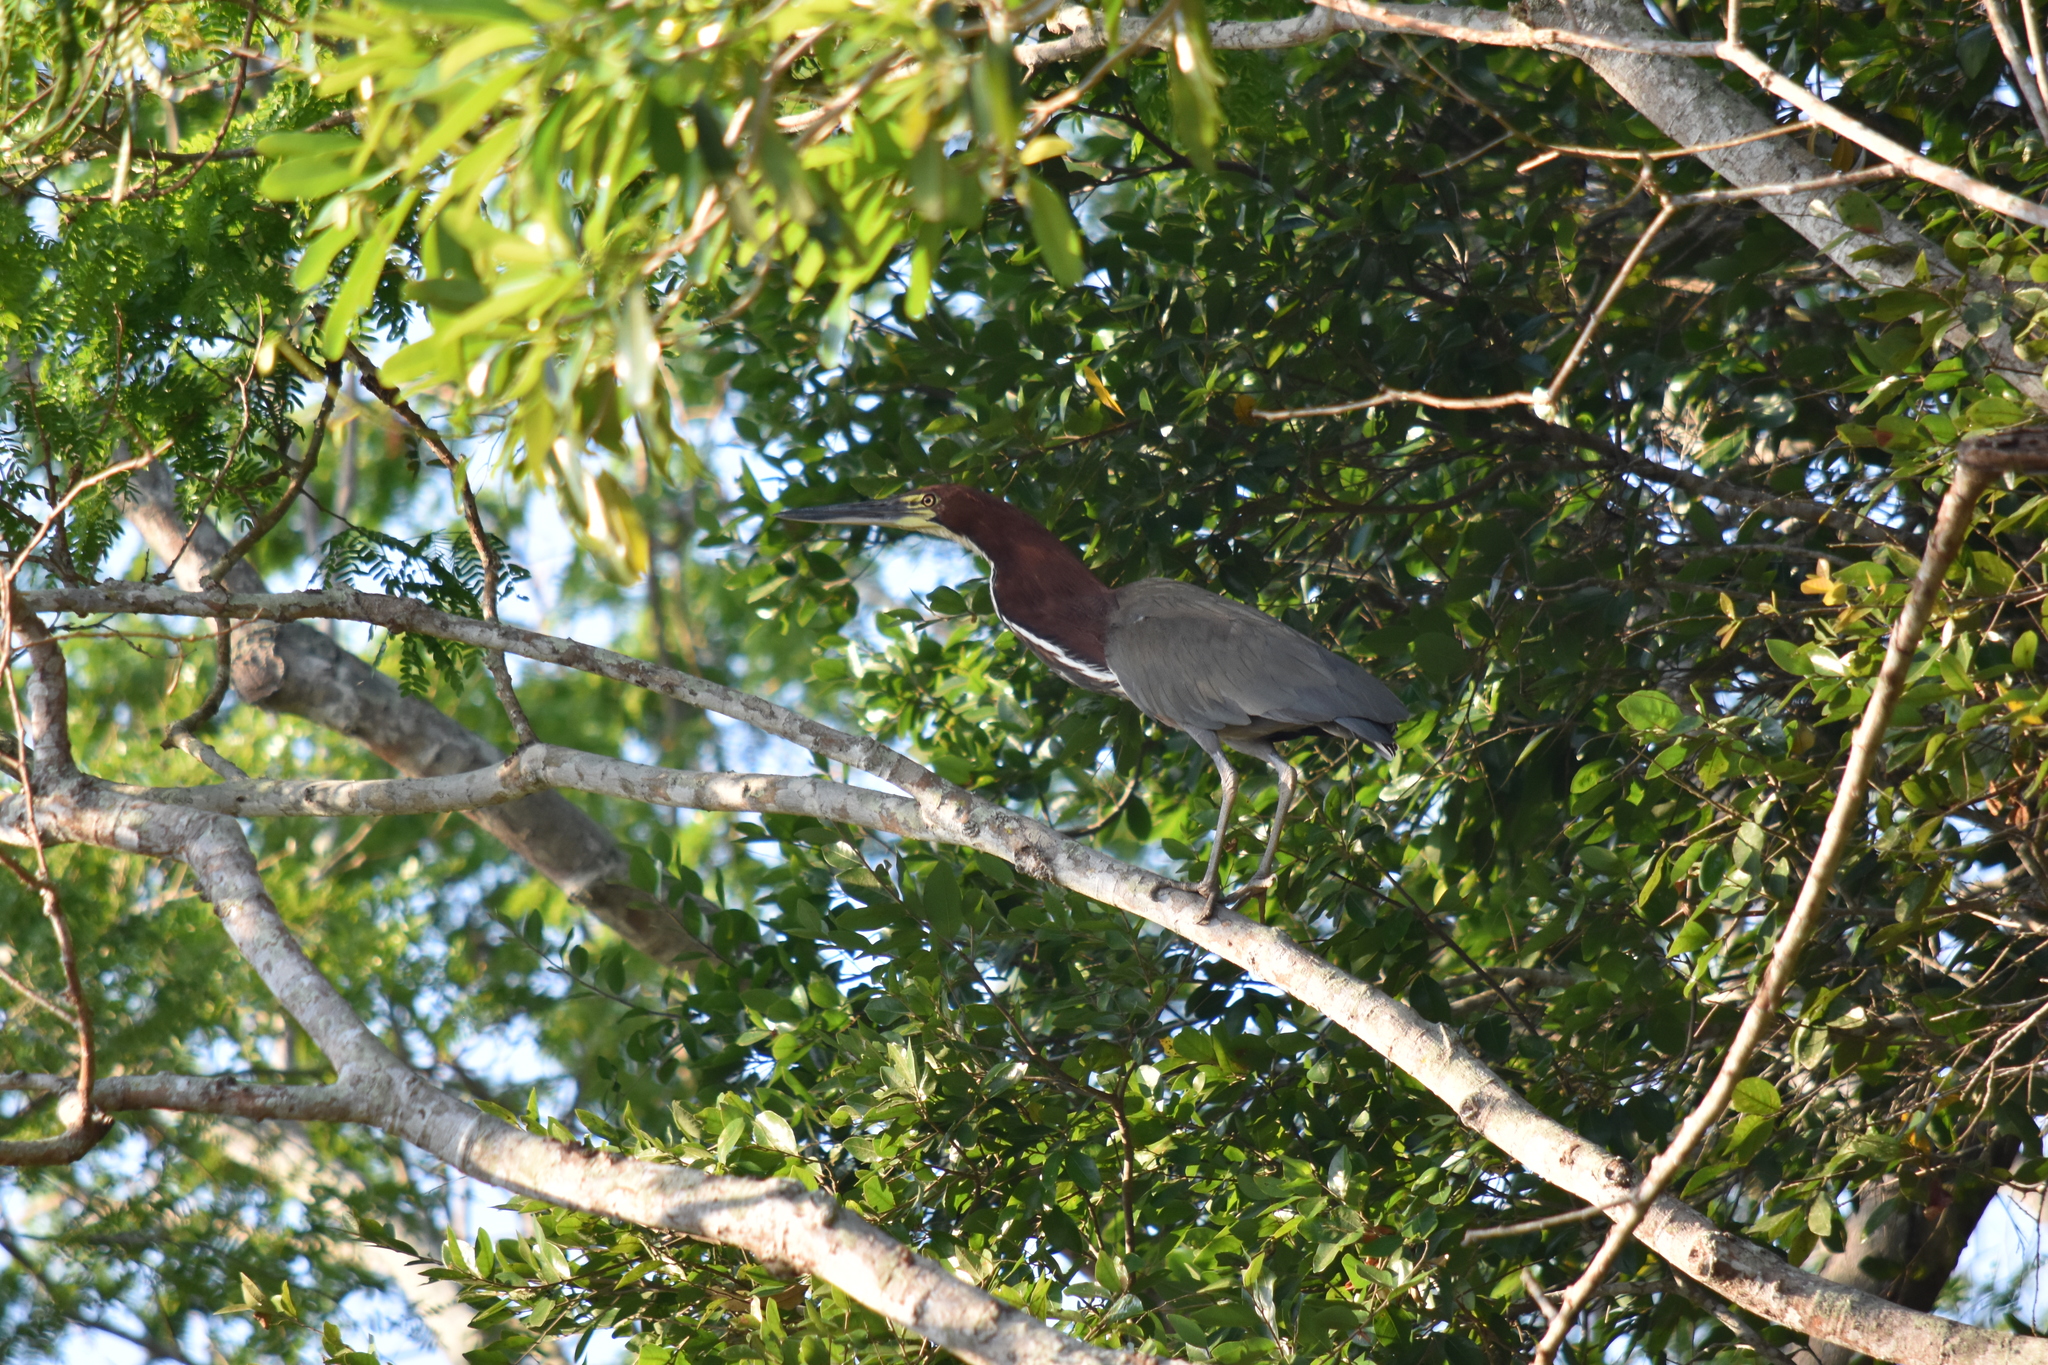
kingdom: Animalia
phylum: Chordata
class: Aves
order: Pelecaniformes
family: Ardeidae
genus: Tigrisoma
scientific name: Tigrisoma lineatum
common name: Rufescent tiger-heron
